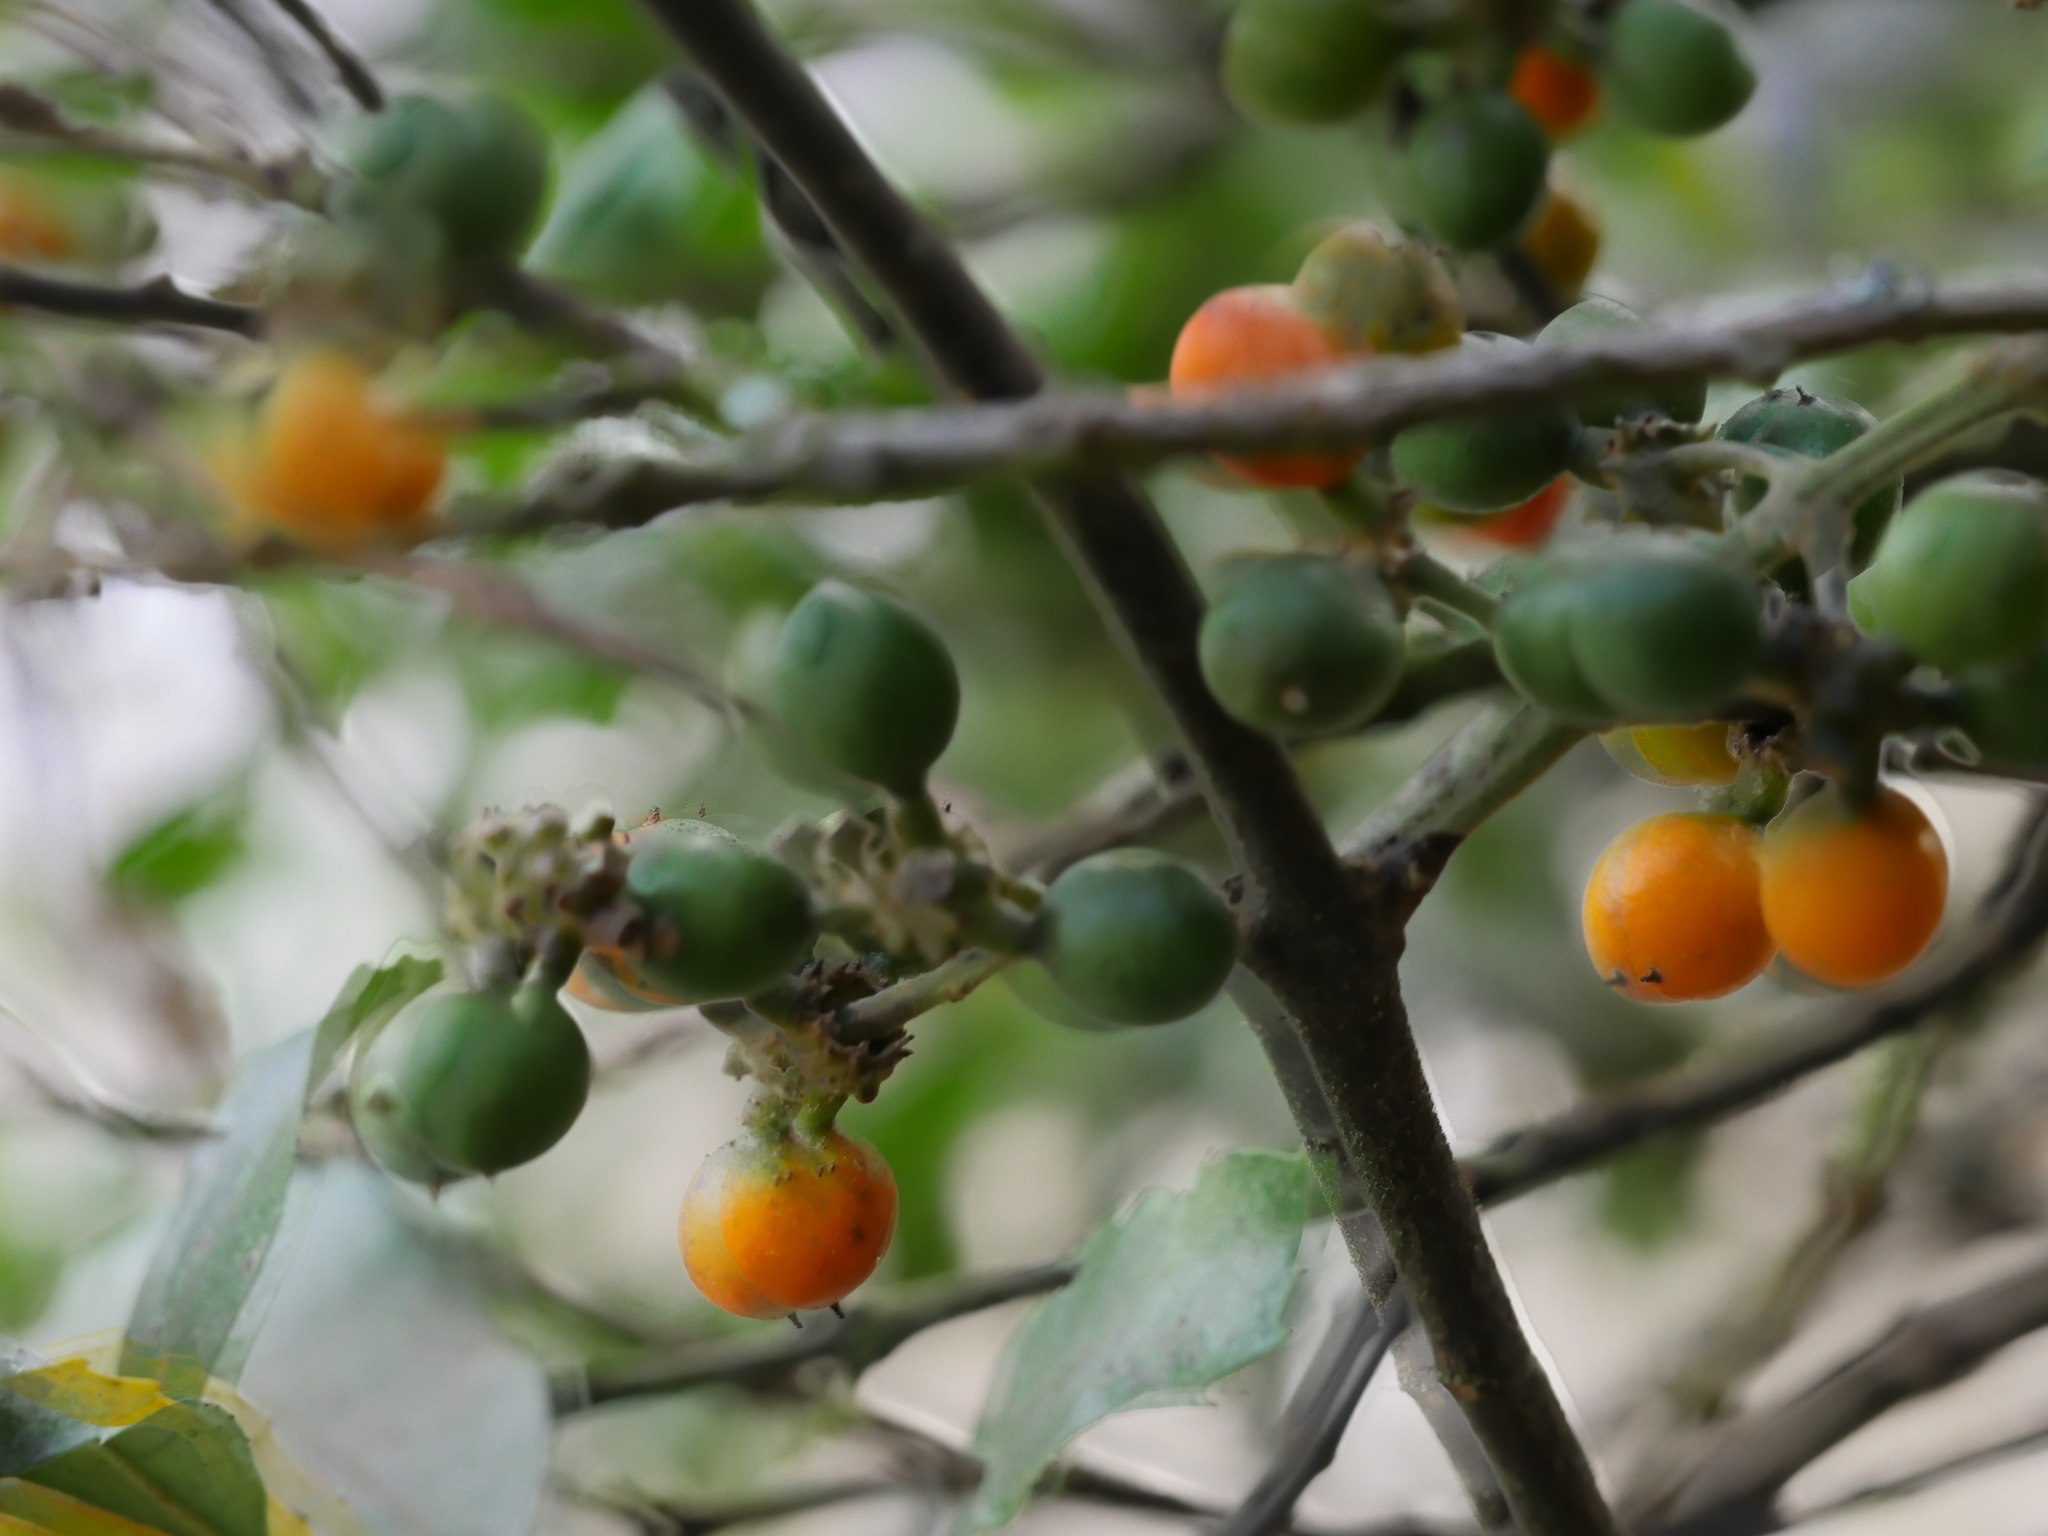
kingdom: Plantae
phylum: Tracheophyta
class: Magnoliopsida
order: Laurales
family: Monimiaceae
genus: Hedycarya
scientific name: Hedycarya arborea
